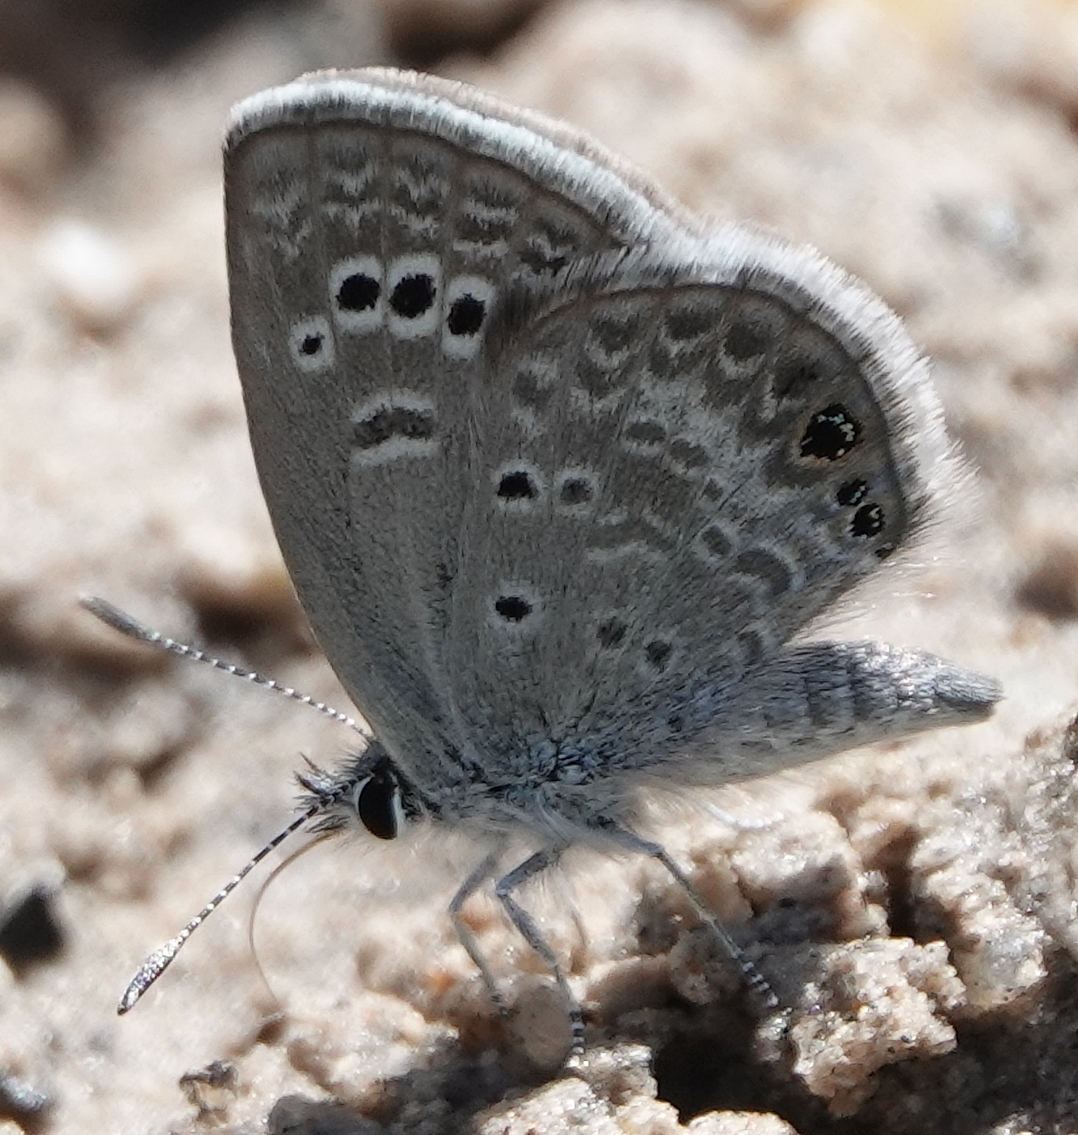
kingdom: Animalia
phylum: Arthropoda
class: Insecta
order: Lepidoptera
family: Lycaenidae
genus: Echinargus
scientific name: Echinargus isola
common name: Reakirt's blue
